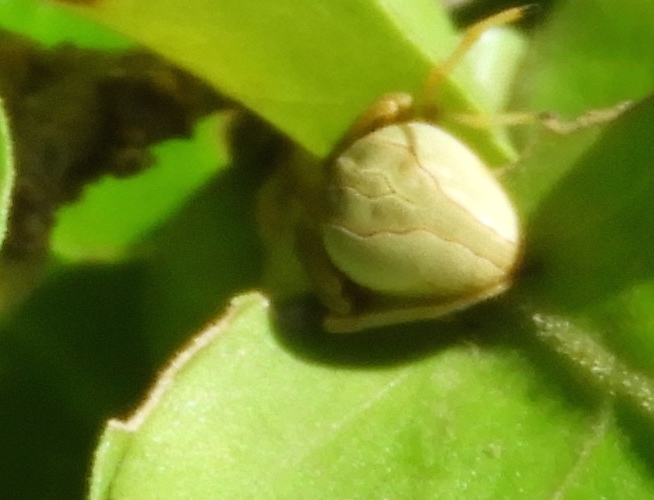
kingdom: Animalia
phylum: Arthropoda
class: Arachnida
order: Araneae
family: Araneidae
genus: Acacesia
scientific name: Acacesia
